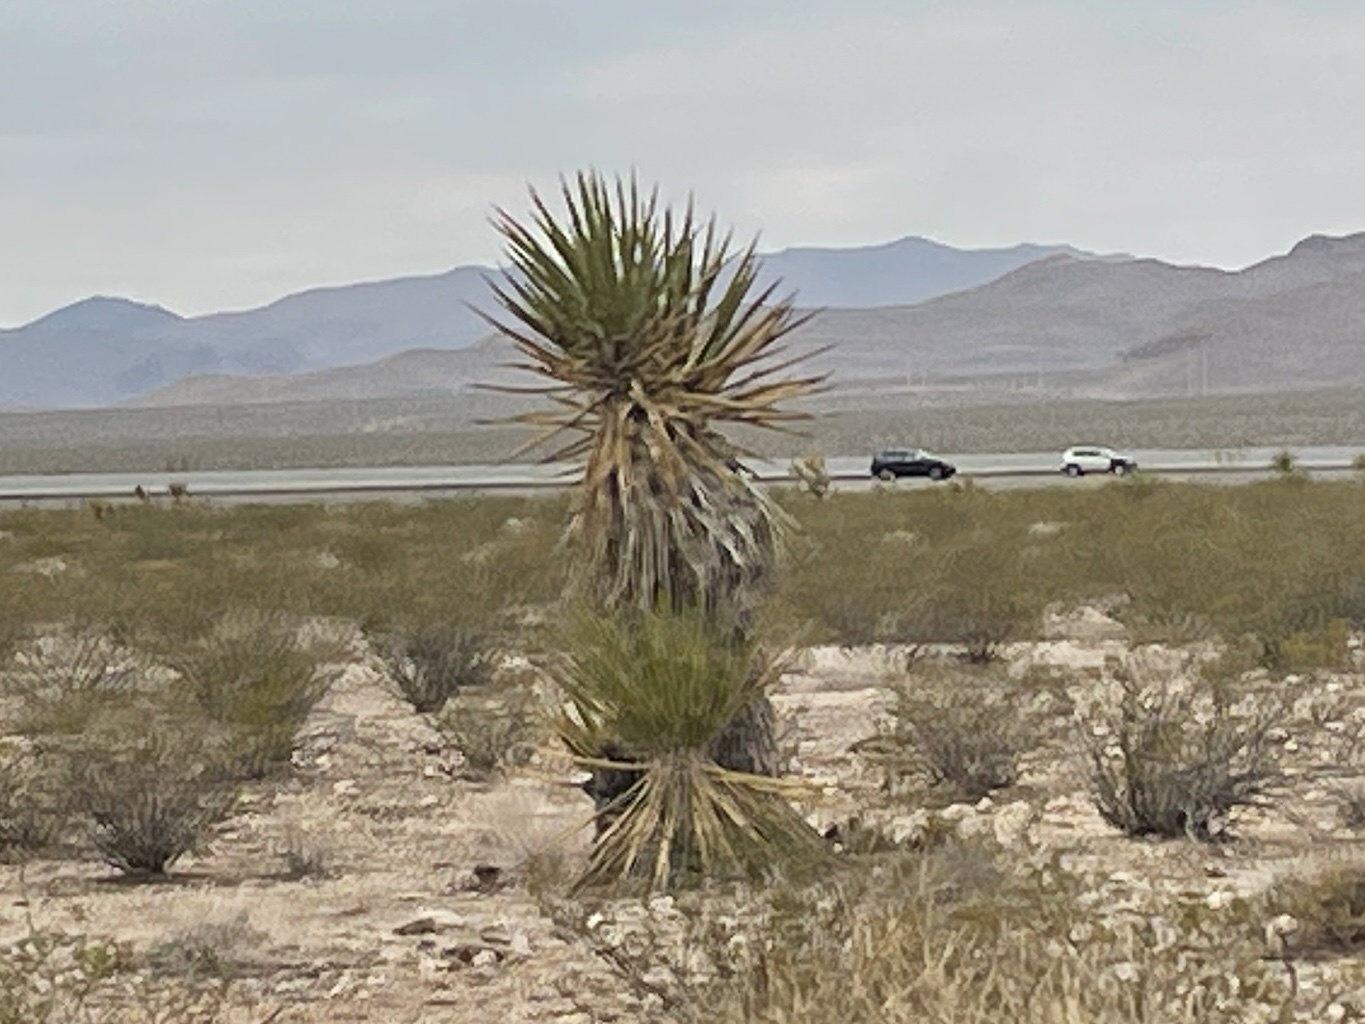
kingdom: Plantae
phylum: Tracheophyta
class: Liliopsida
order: Asparagales
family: Asparagaceae
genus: Yucca
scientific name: Yucca schidigera
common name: Mojave yucca
